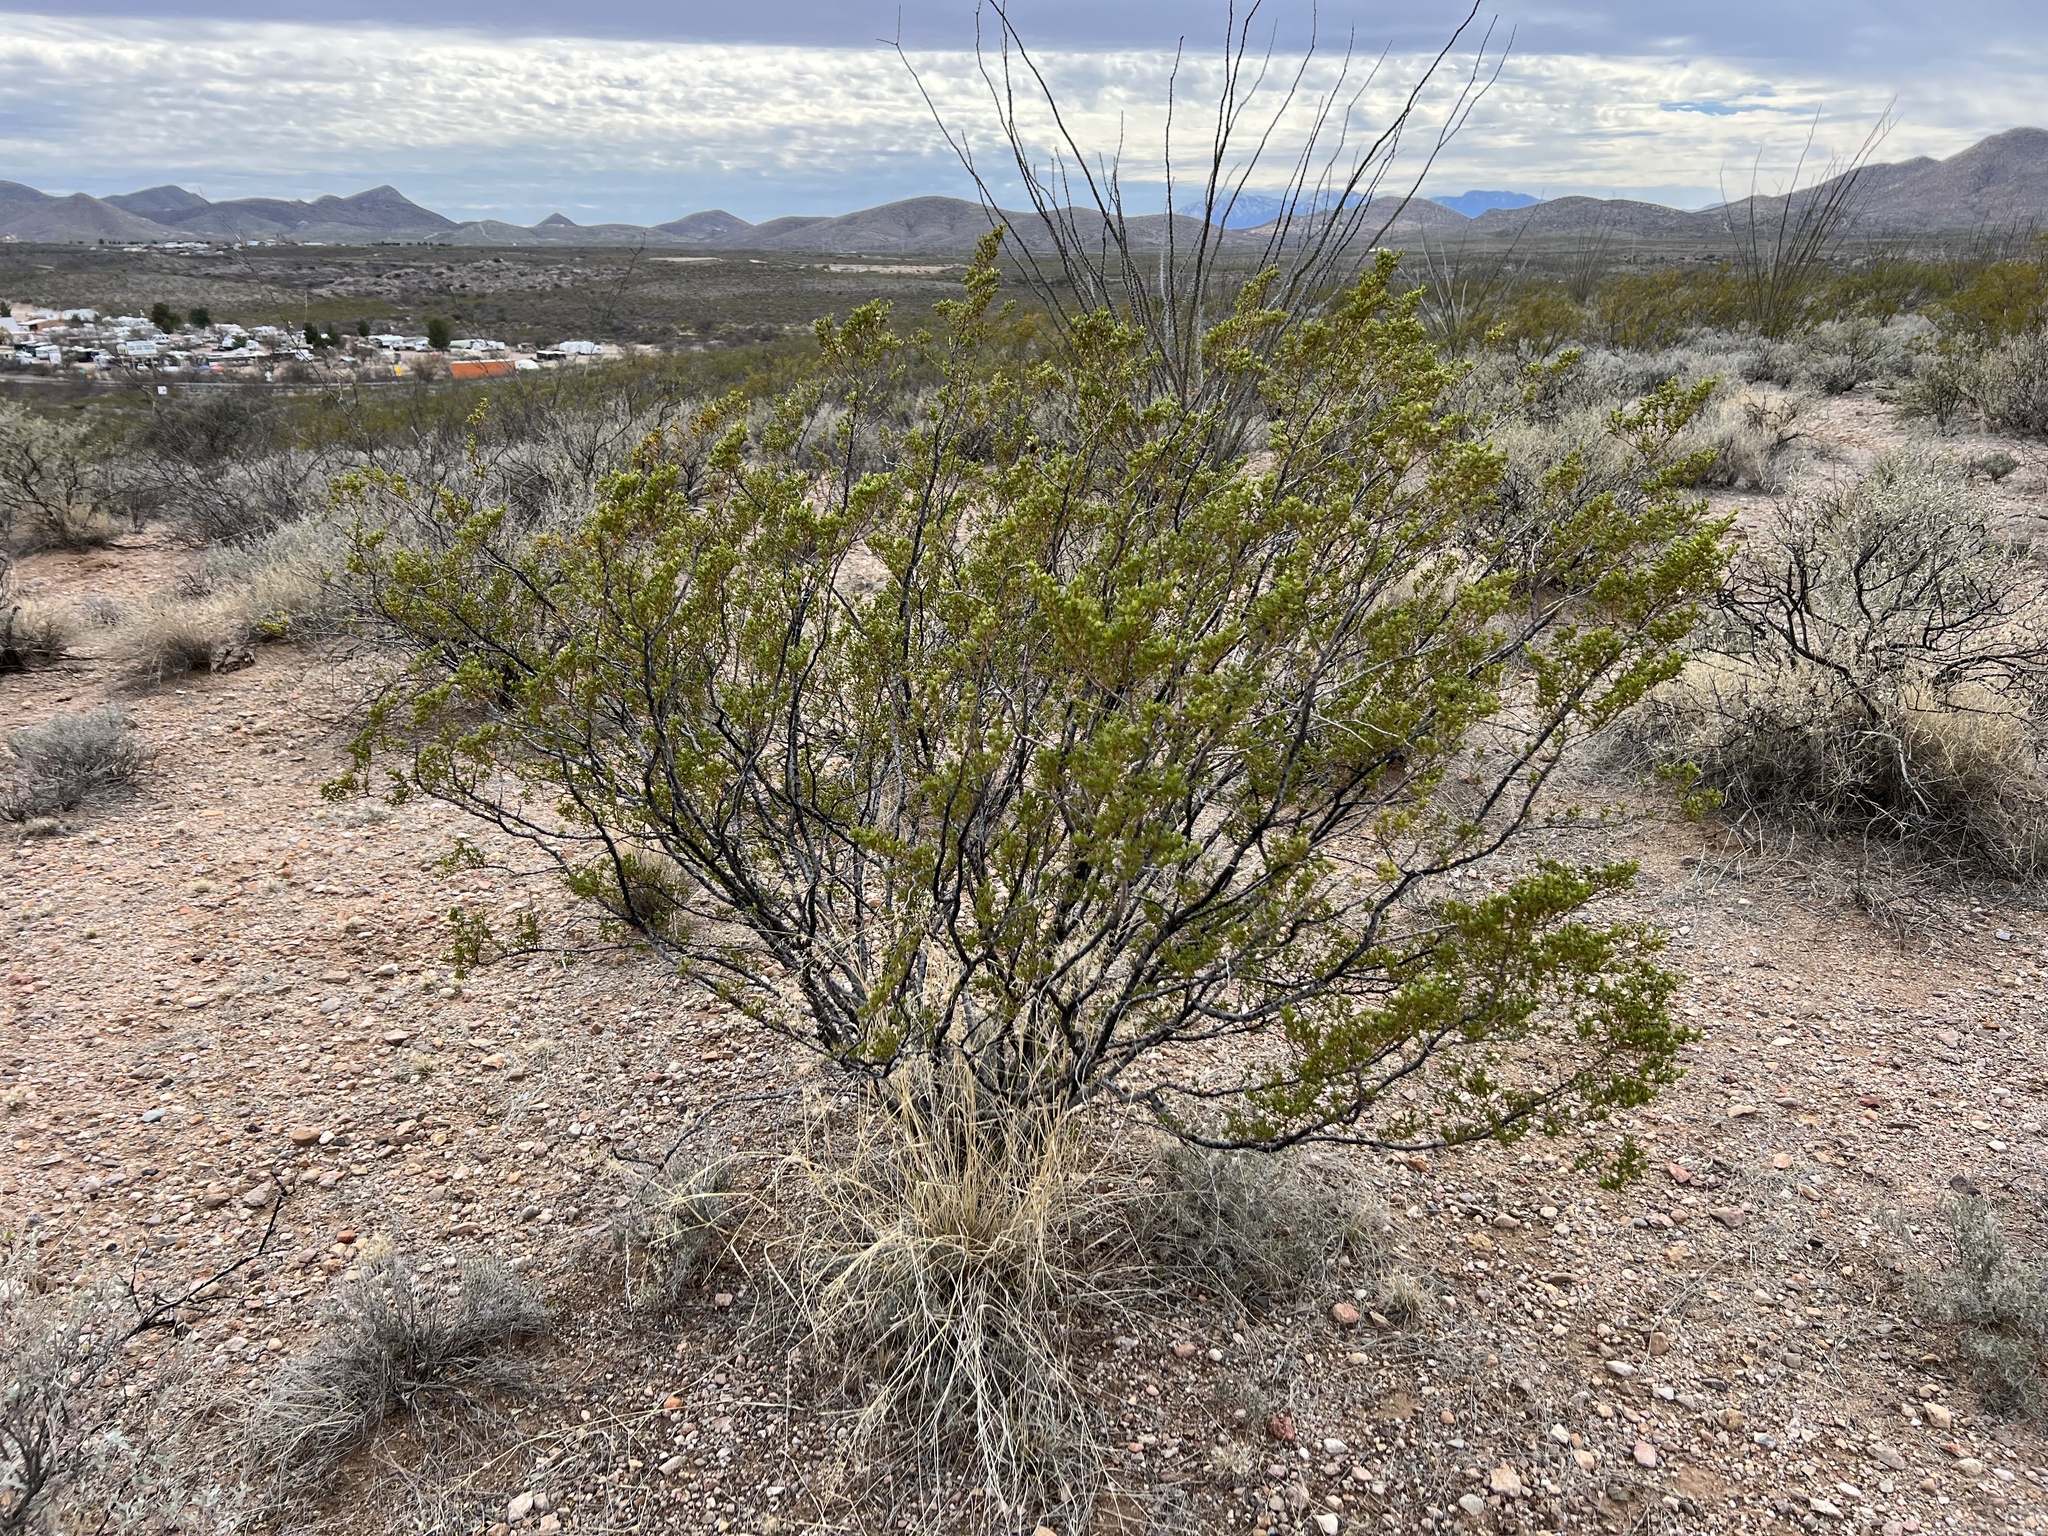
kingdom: Plantae
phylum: Tracheophyta
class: Magnoliopsida
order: Zygophyllales
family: Zygophyllaceae
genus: Larrea
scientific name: Larrea tridentata
